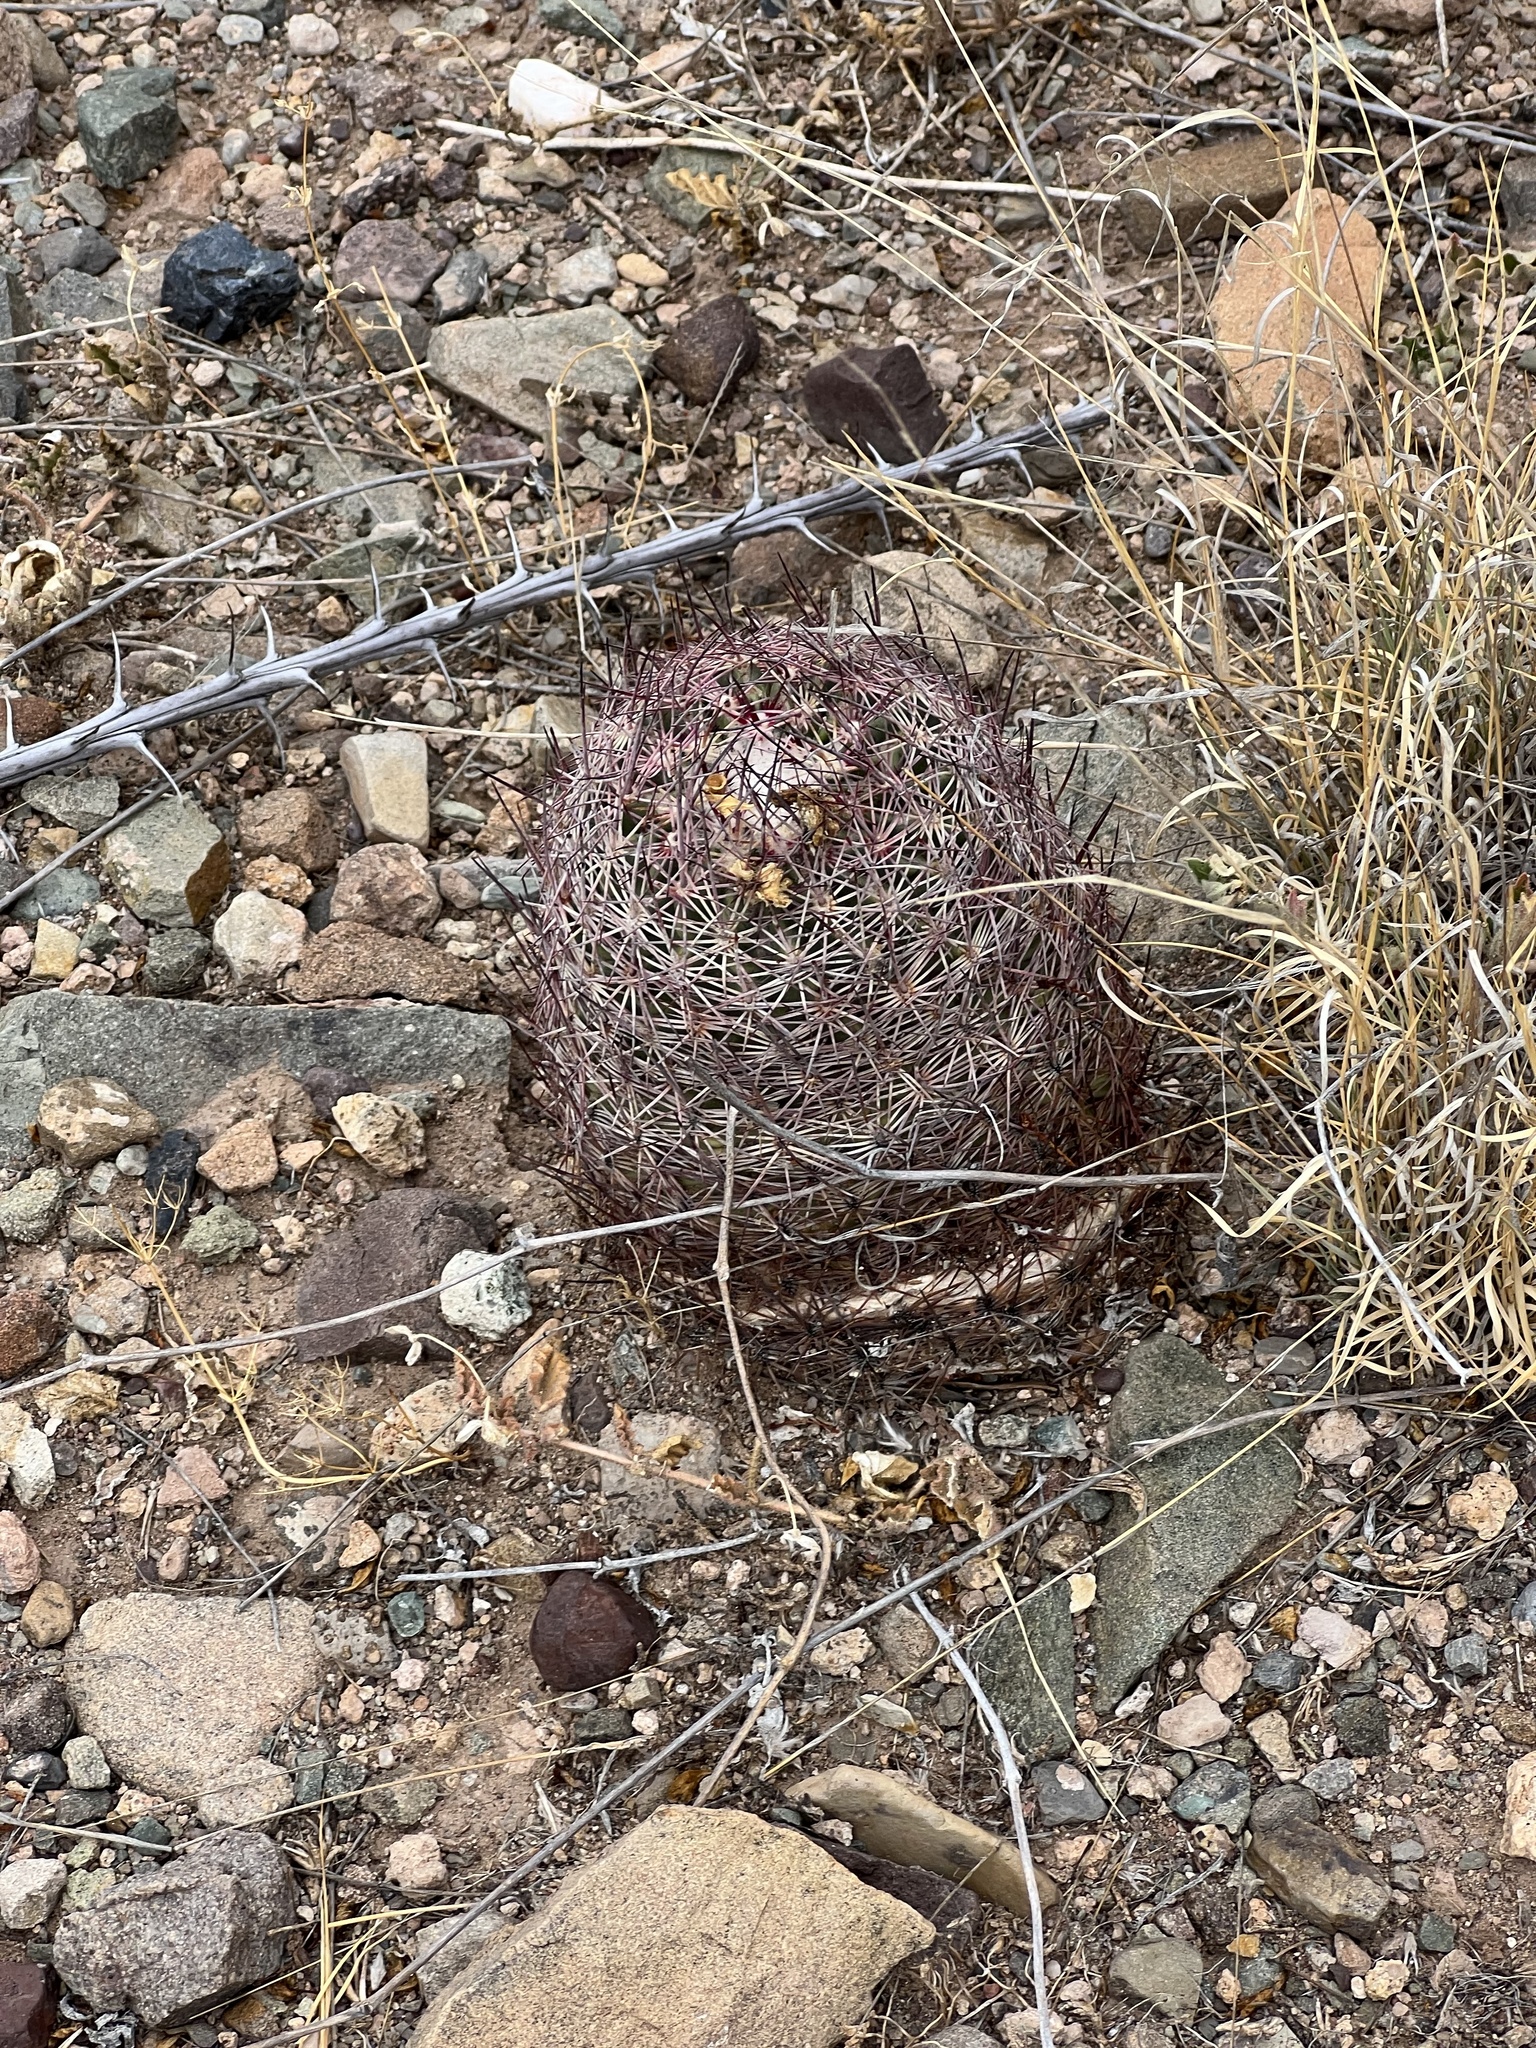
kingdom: Plantae
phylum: Tracheophyta
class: Magnoliopsida
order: Caryophyllales
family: Cactaceae
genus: Sclerocactus
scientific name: Sclerocactus johnsonii
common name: Eight-spine fishhook cactus
